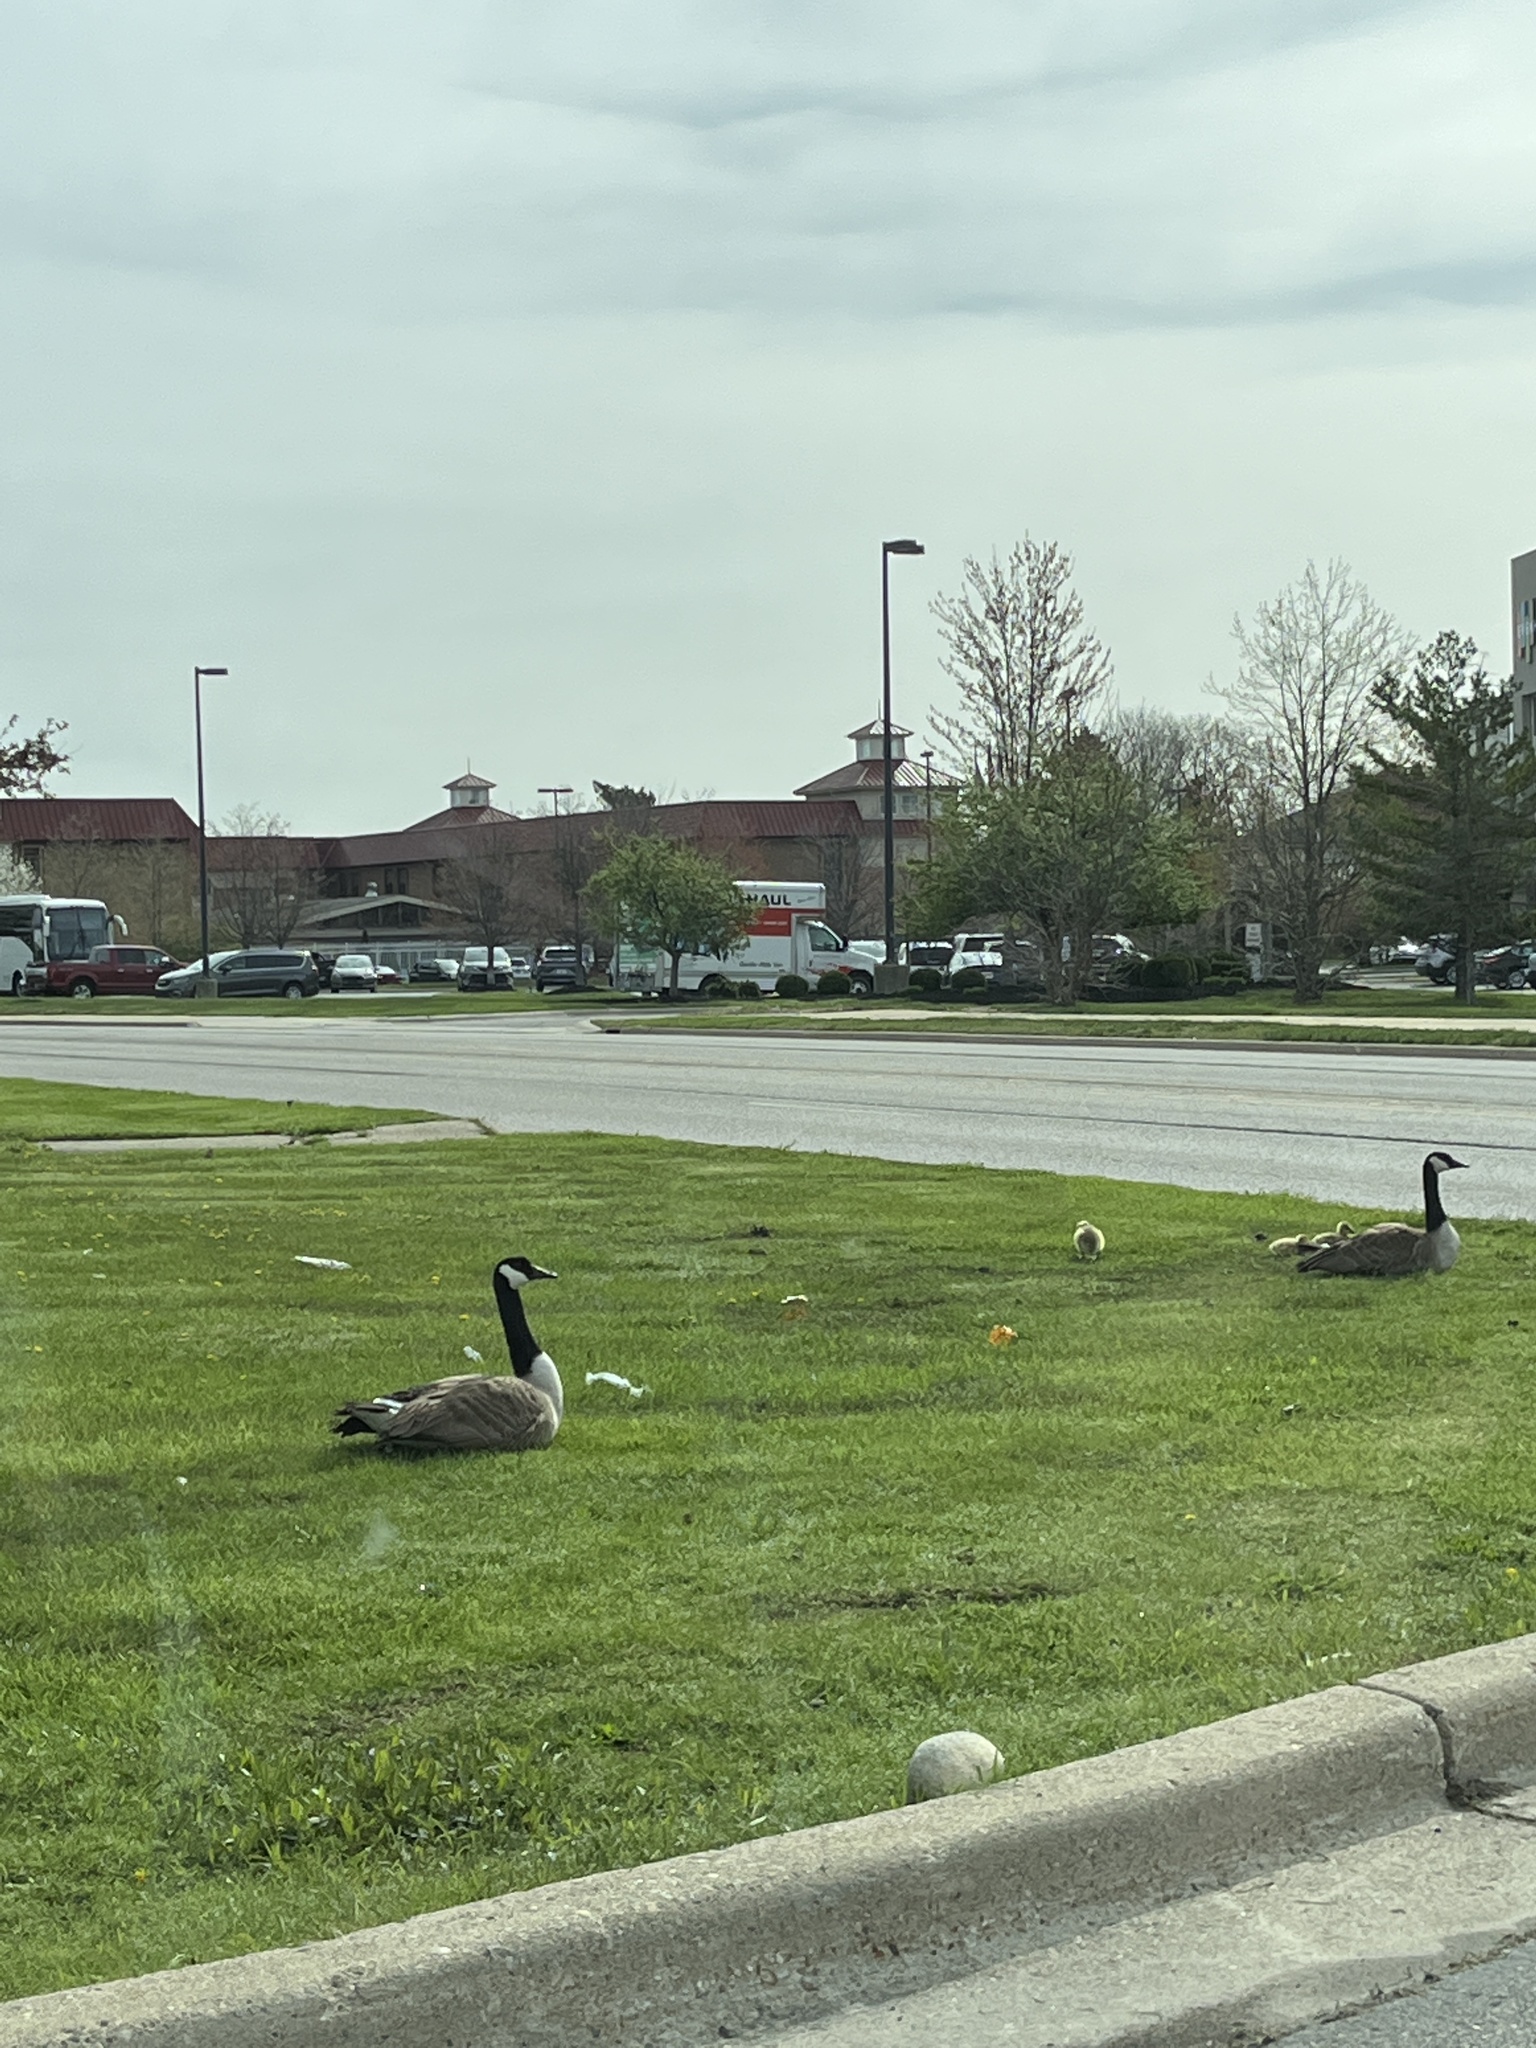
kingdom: Animalia
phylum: Chordata
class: Aves
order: Anseriformes
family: Anatidae
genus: Branta
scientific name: Branta canadensis
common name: Canada goose
